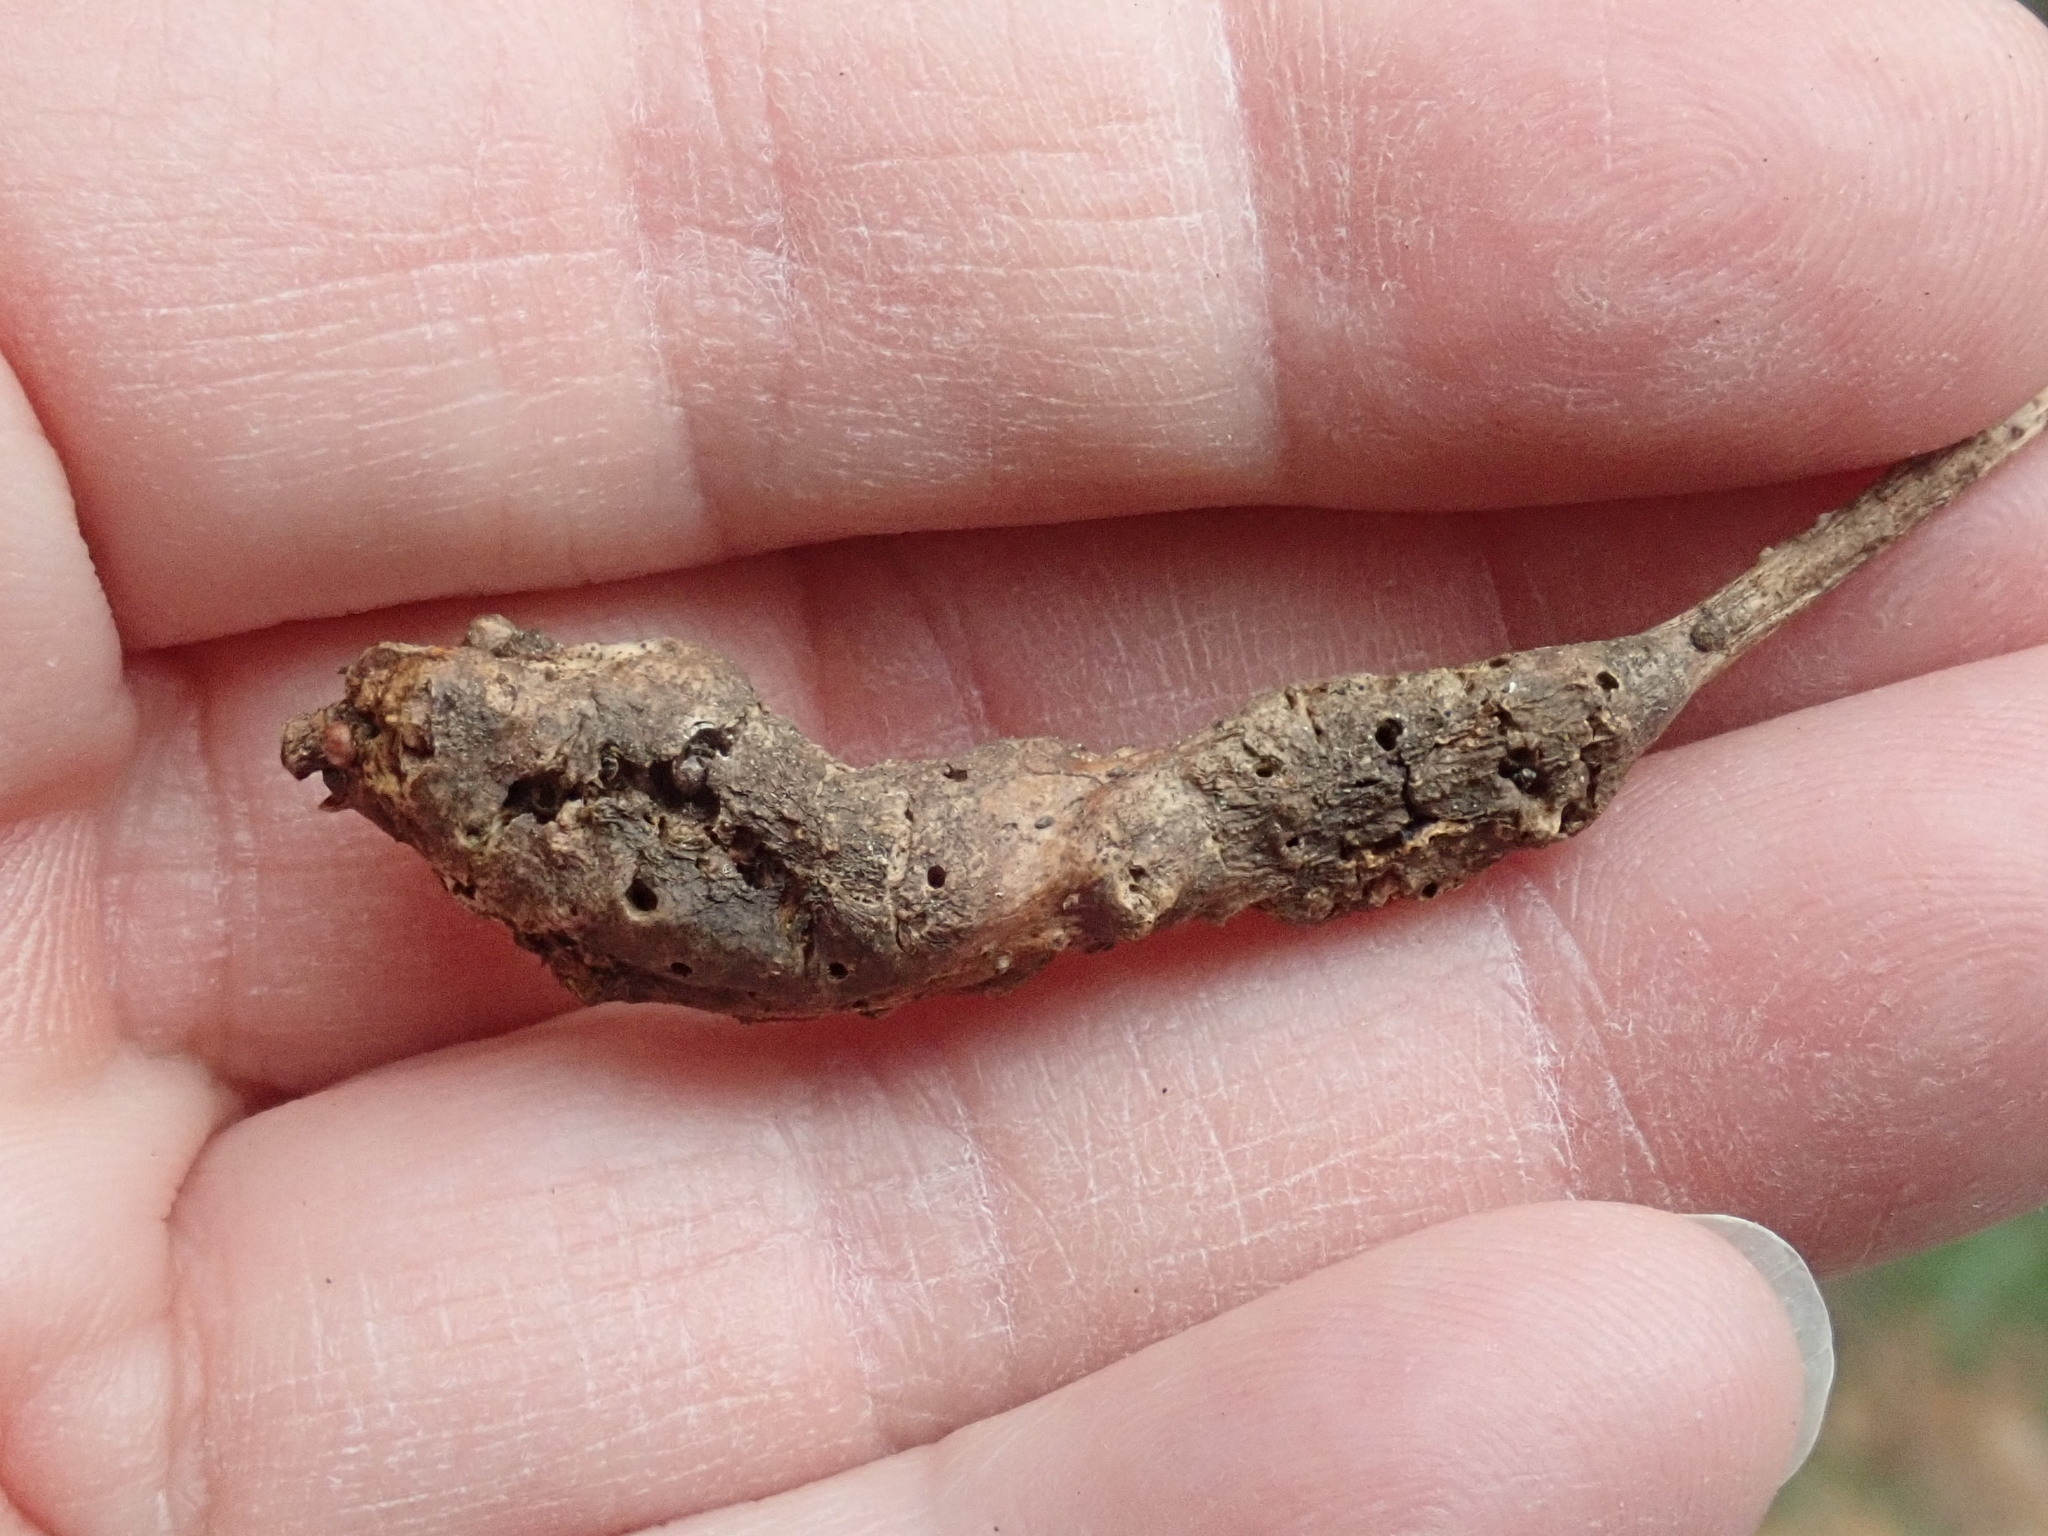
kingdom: Animalia
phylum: Arthropoda
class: Insecta
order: Hymenoptera
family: Cynipidae
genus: Neuroterus
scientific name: Neuroterus quercusbaccarum
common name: Common spangle gall
